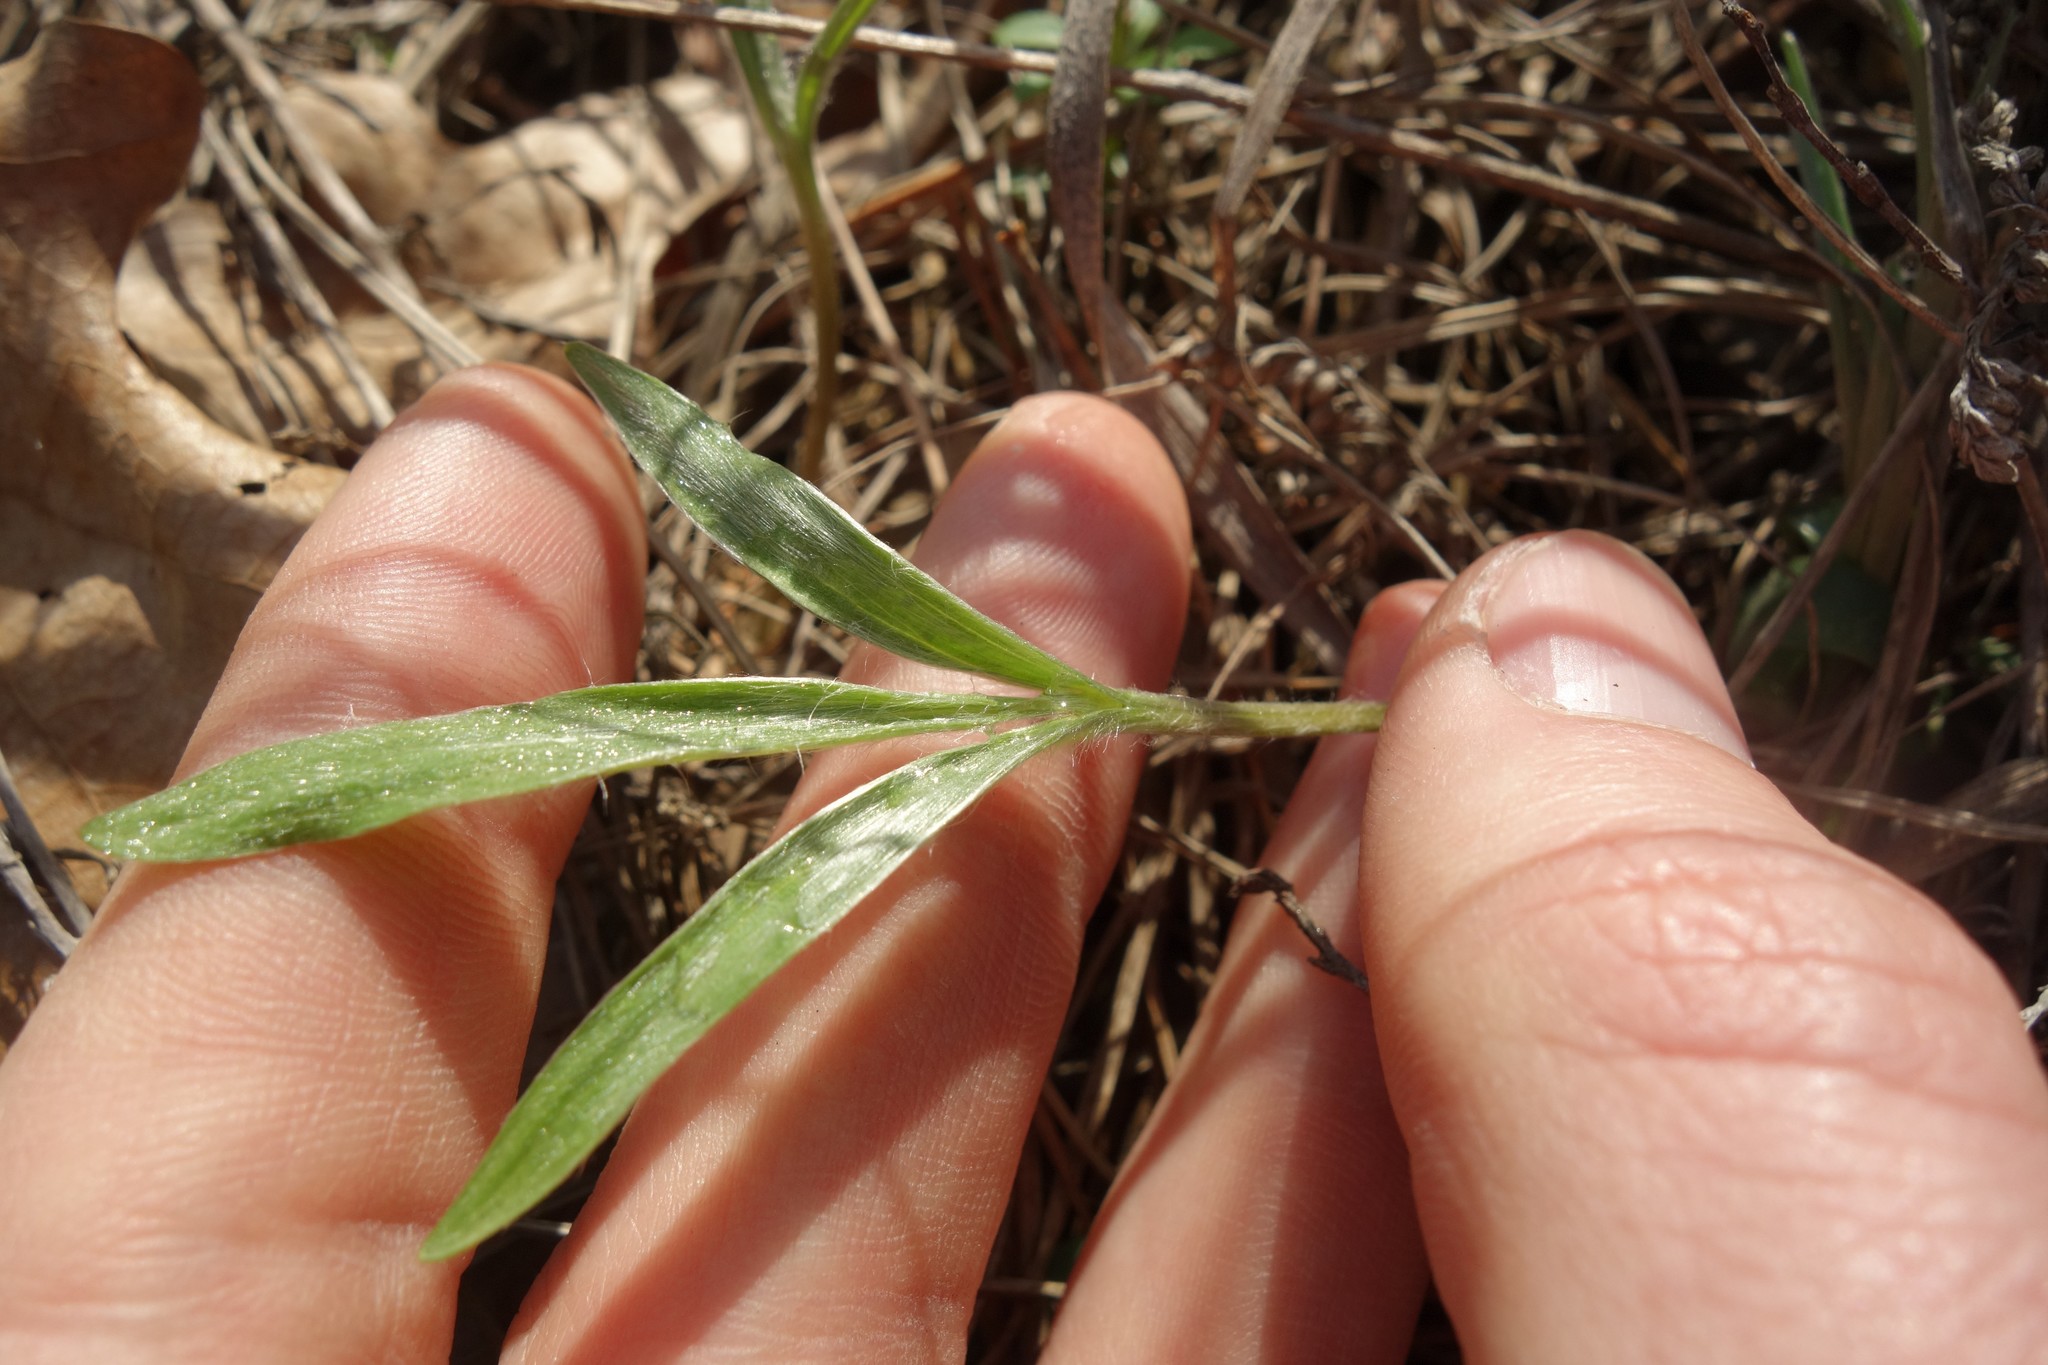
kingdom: Plantae
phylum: Tracheophyta
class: Magnoliopsida
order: Ranunculales
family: Ranunculaceae
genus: Ranunculus
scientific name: Ranunculus illyricus
